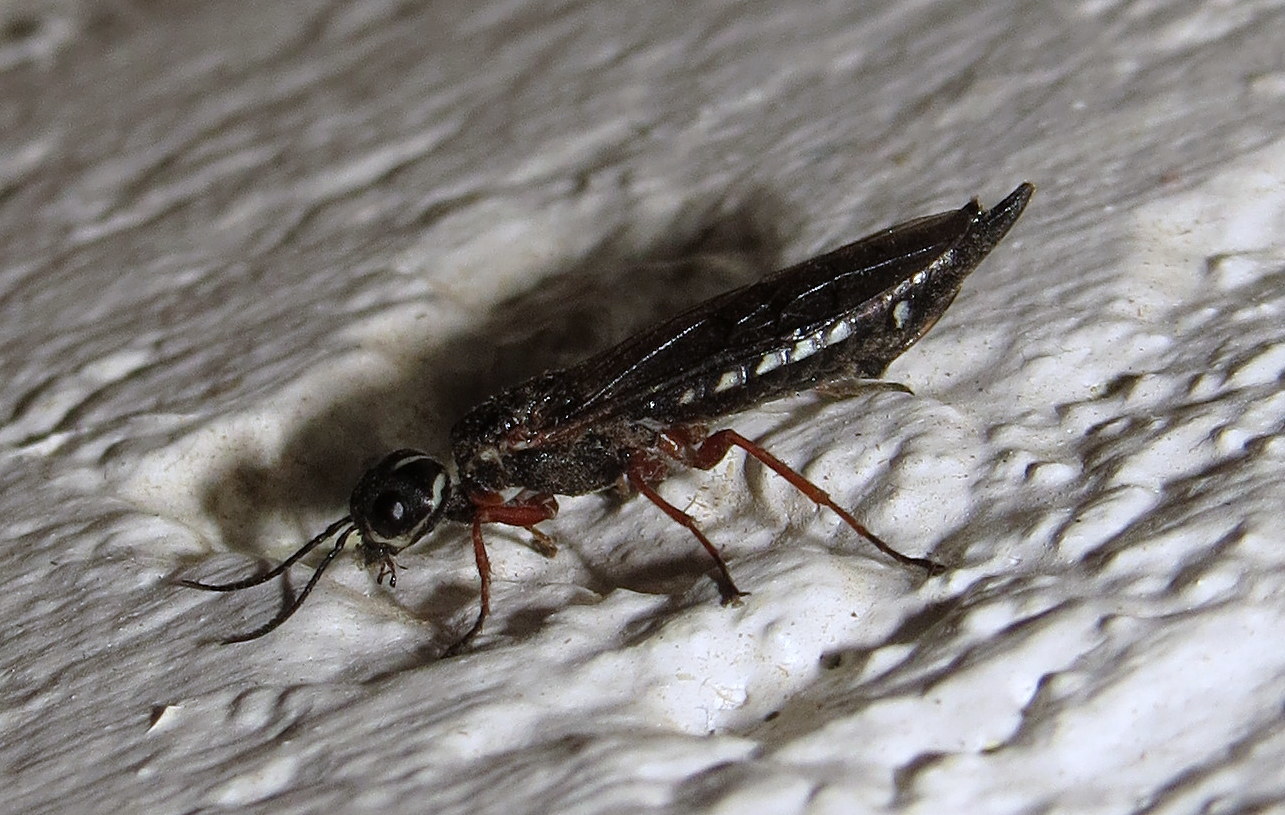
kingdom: Animalia
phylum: Arthropoda
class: Insecta
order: Hymenoptera
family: Xiphydriidae
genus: Xiphydria
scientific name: Xiphydria mellipes
